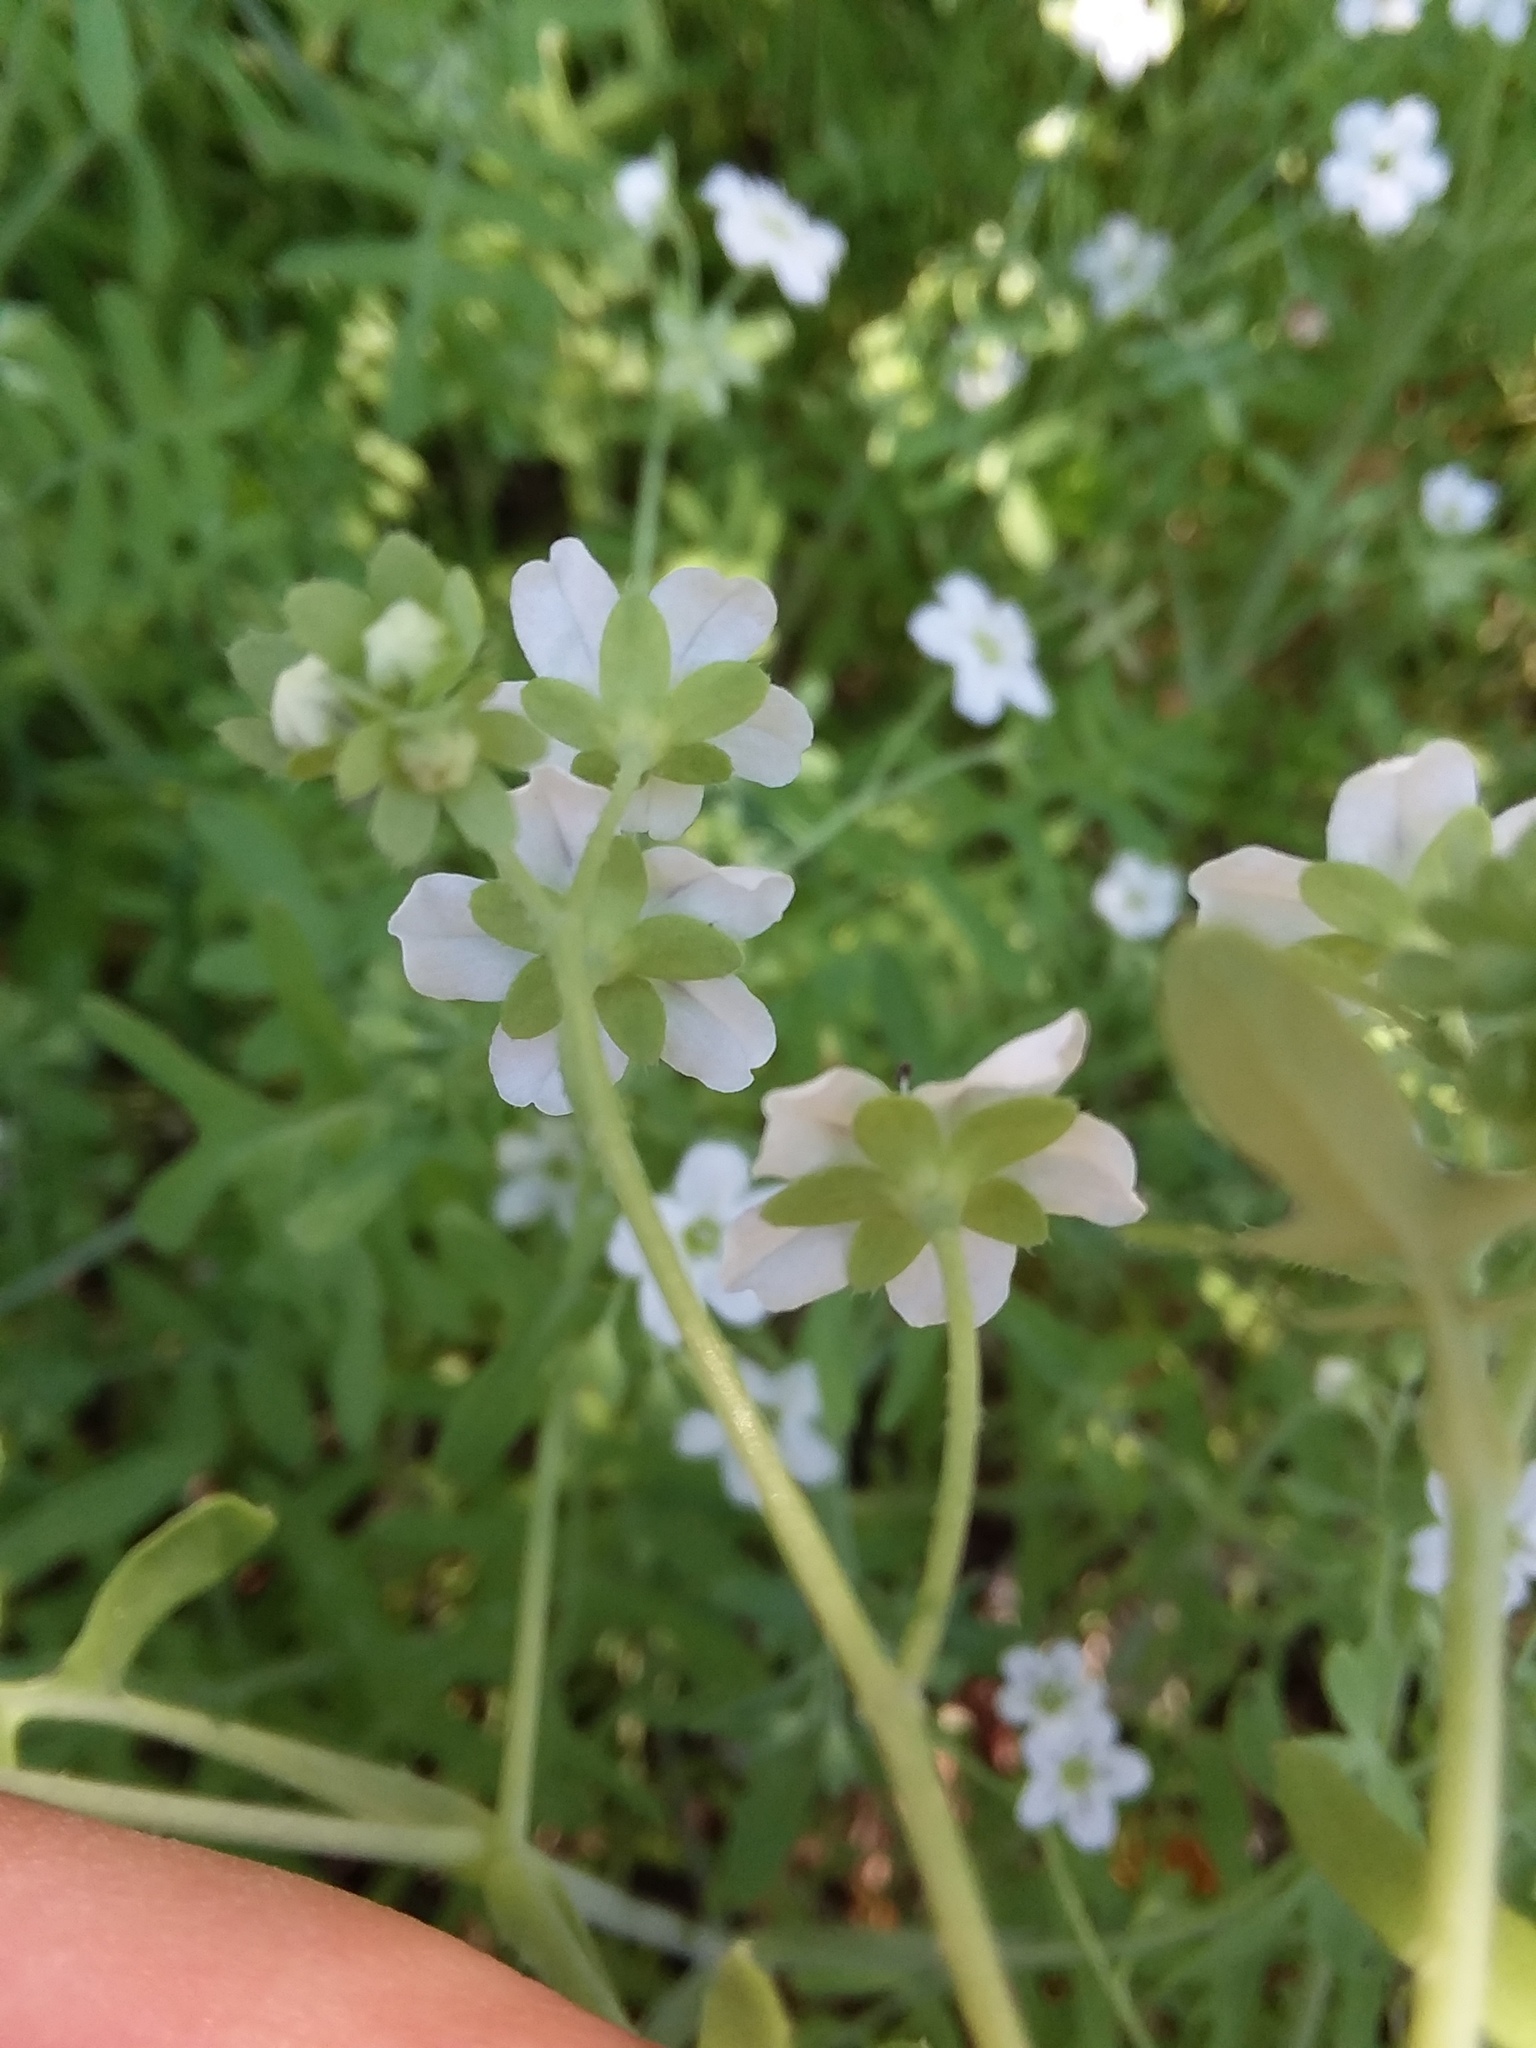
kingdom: Plantae
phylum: Tracheophyta
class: Magnoliopsida
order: Boraginales
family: Hydrophyllaceae
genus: Pholistoma
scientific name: Pholistoma membranaceum
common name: White fiesta-flower
